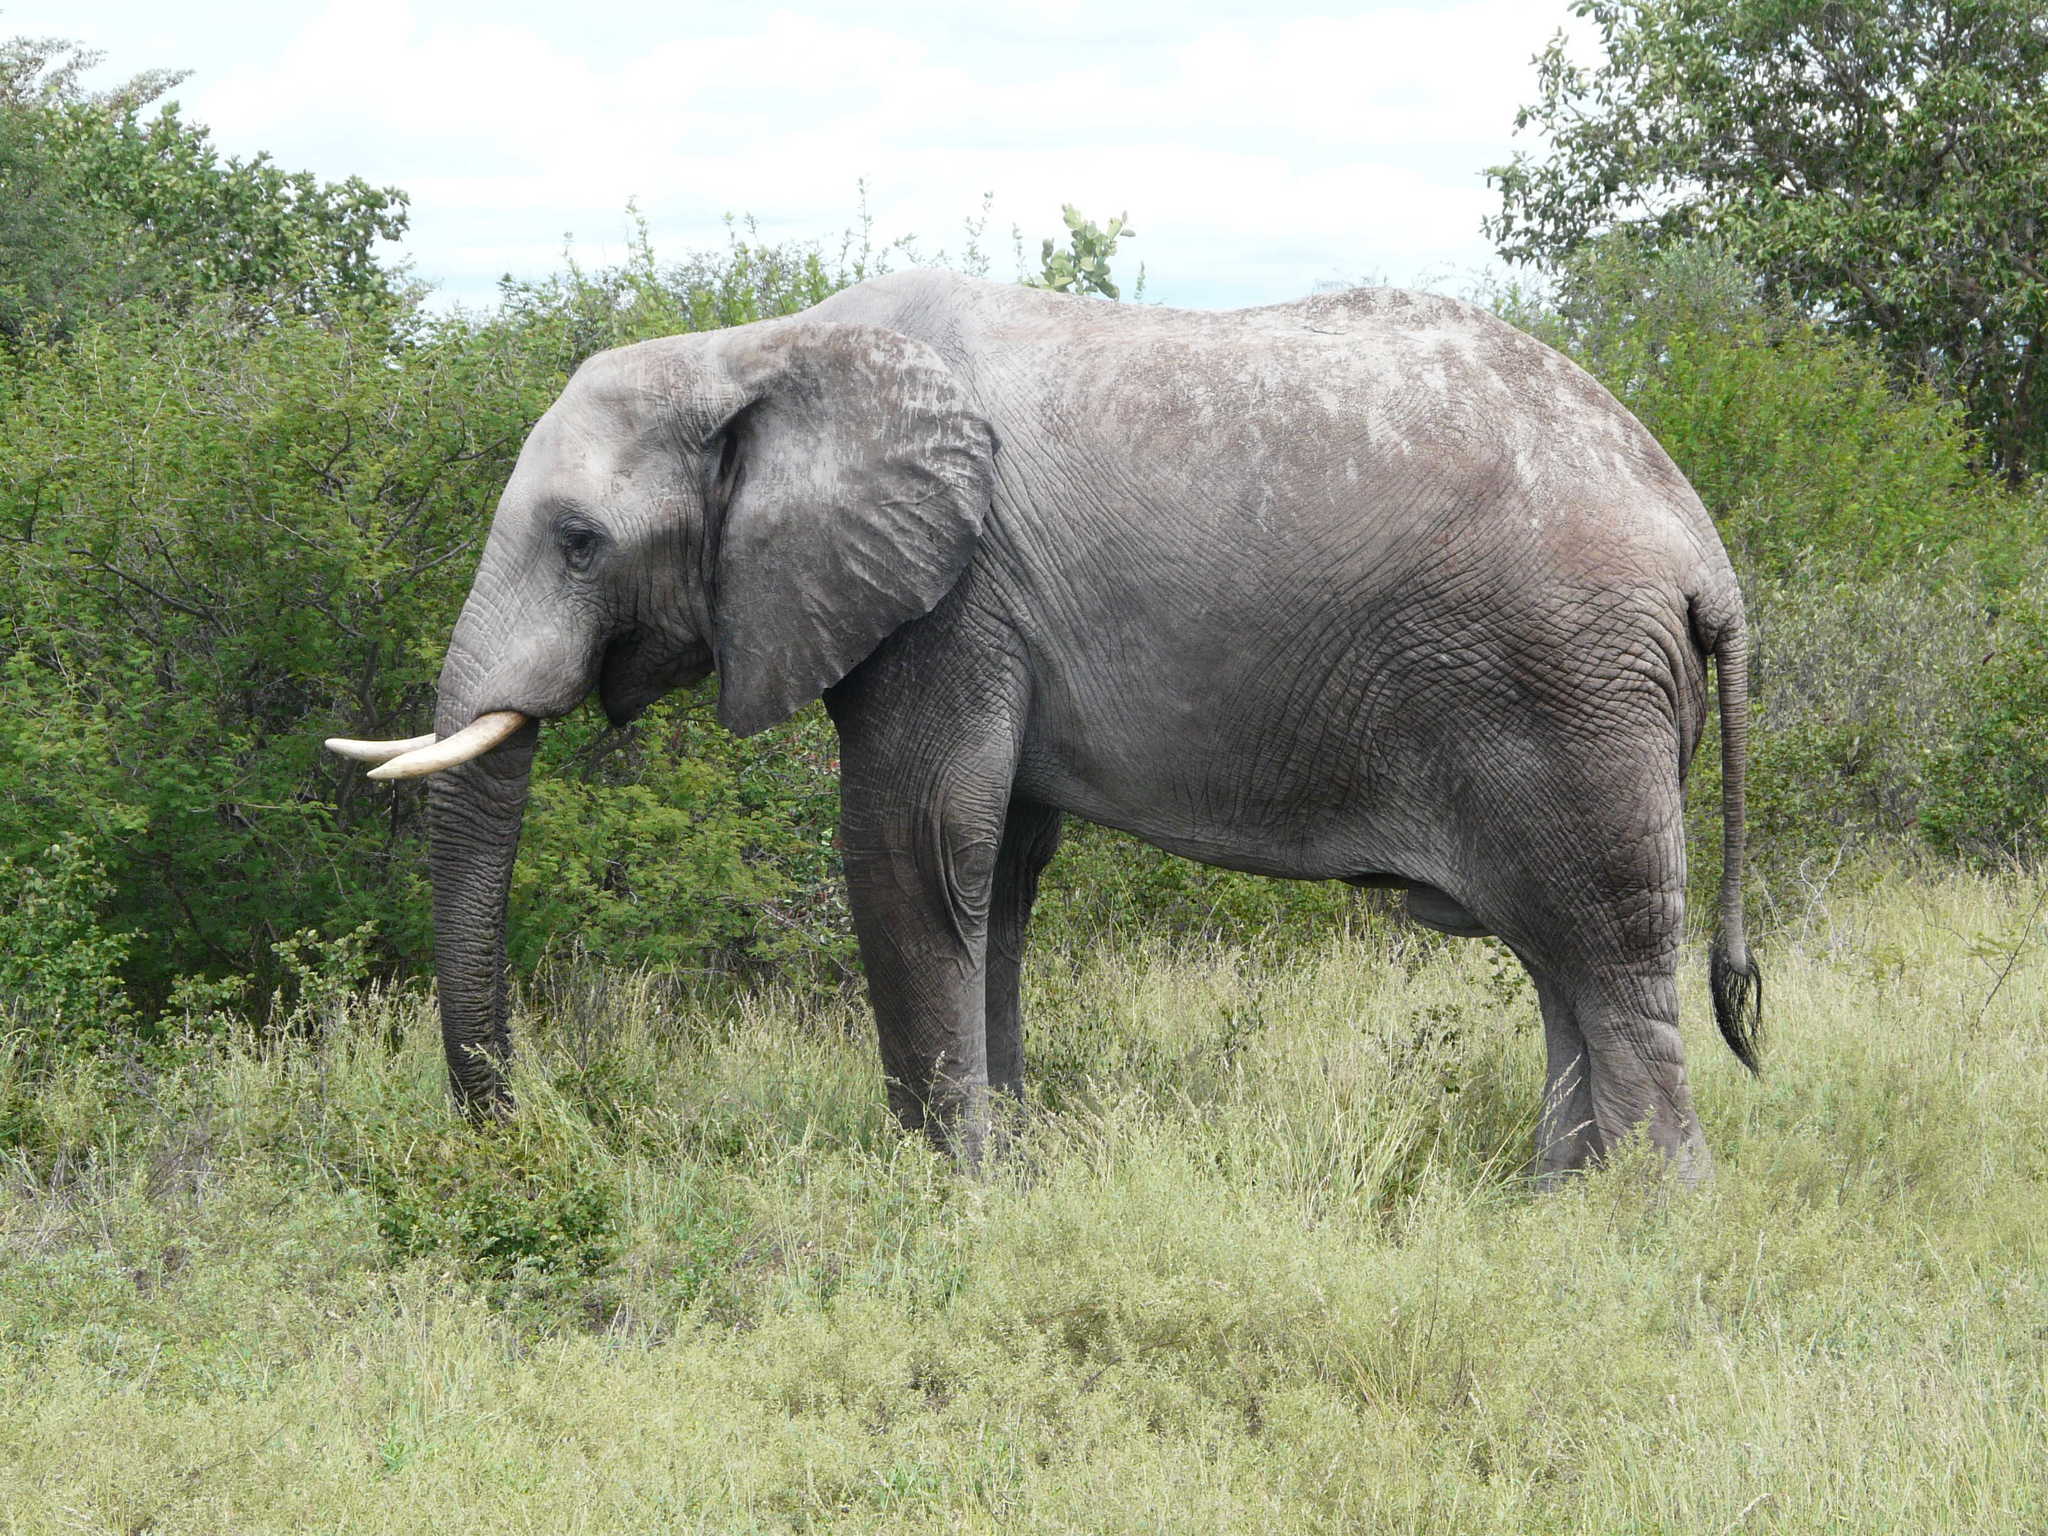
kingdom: Animalia
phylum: Chordata
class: Mammalia
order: Proboscidea
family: Elephantidae
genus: Loxodonta
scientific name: Loxodonta africana
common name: African elephant
